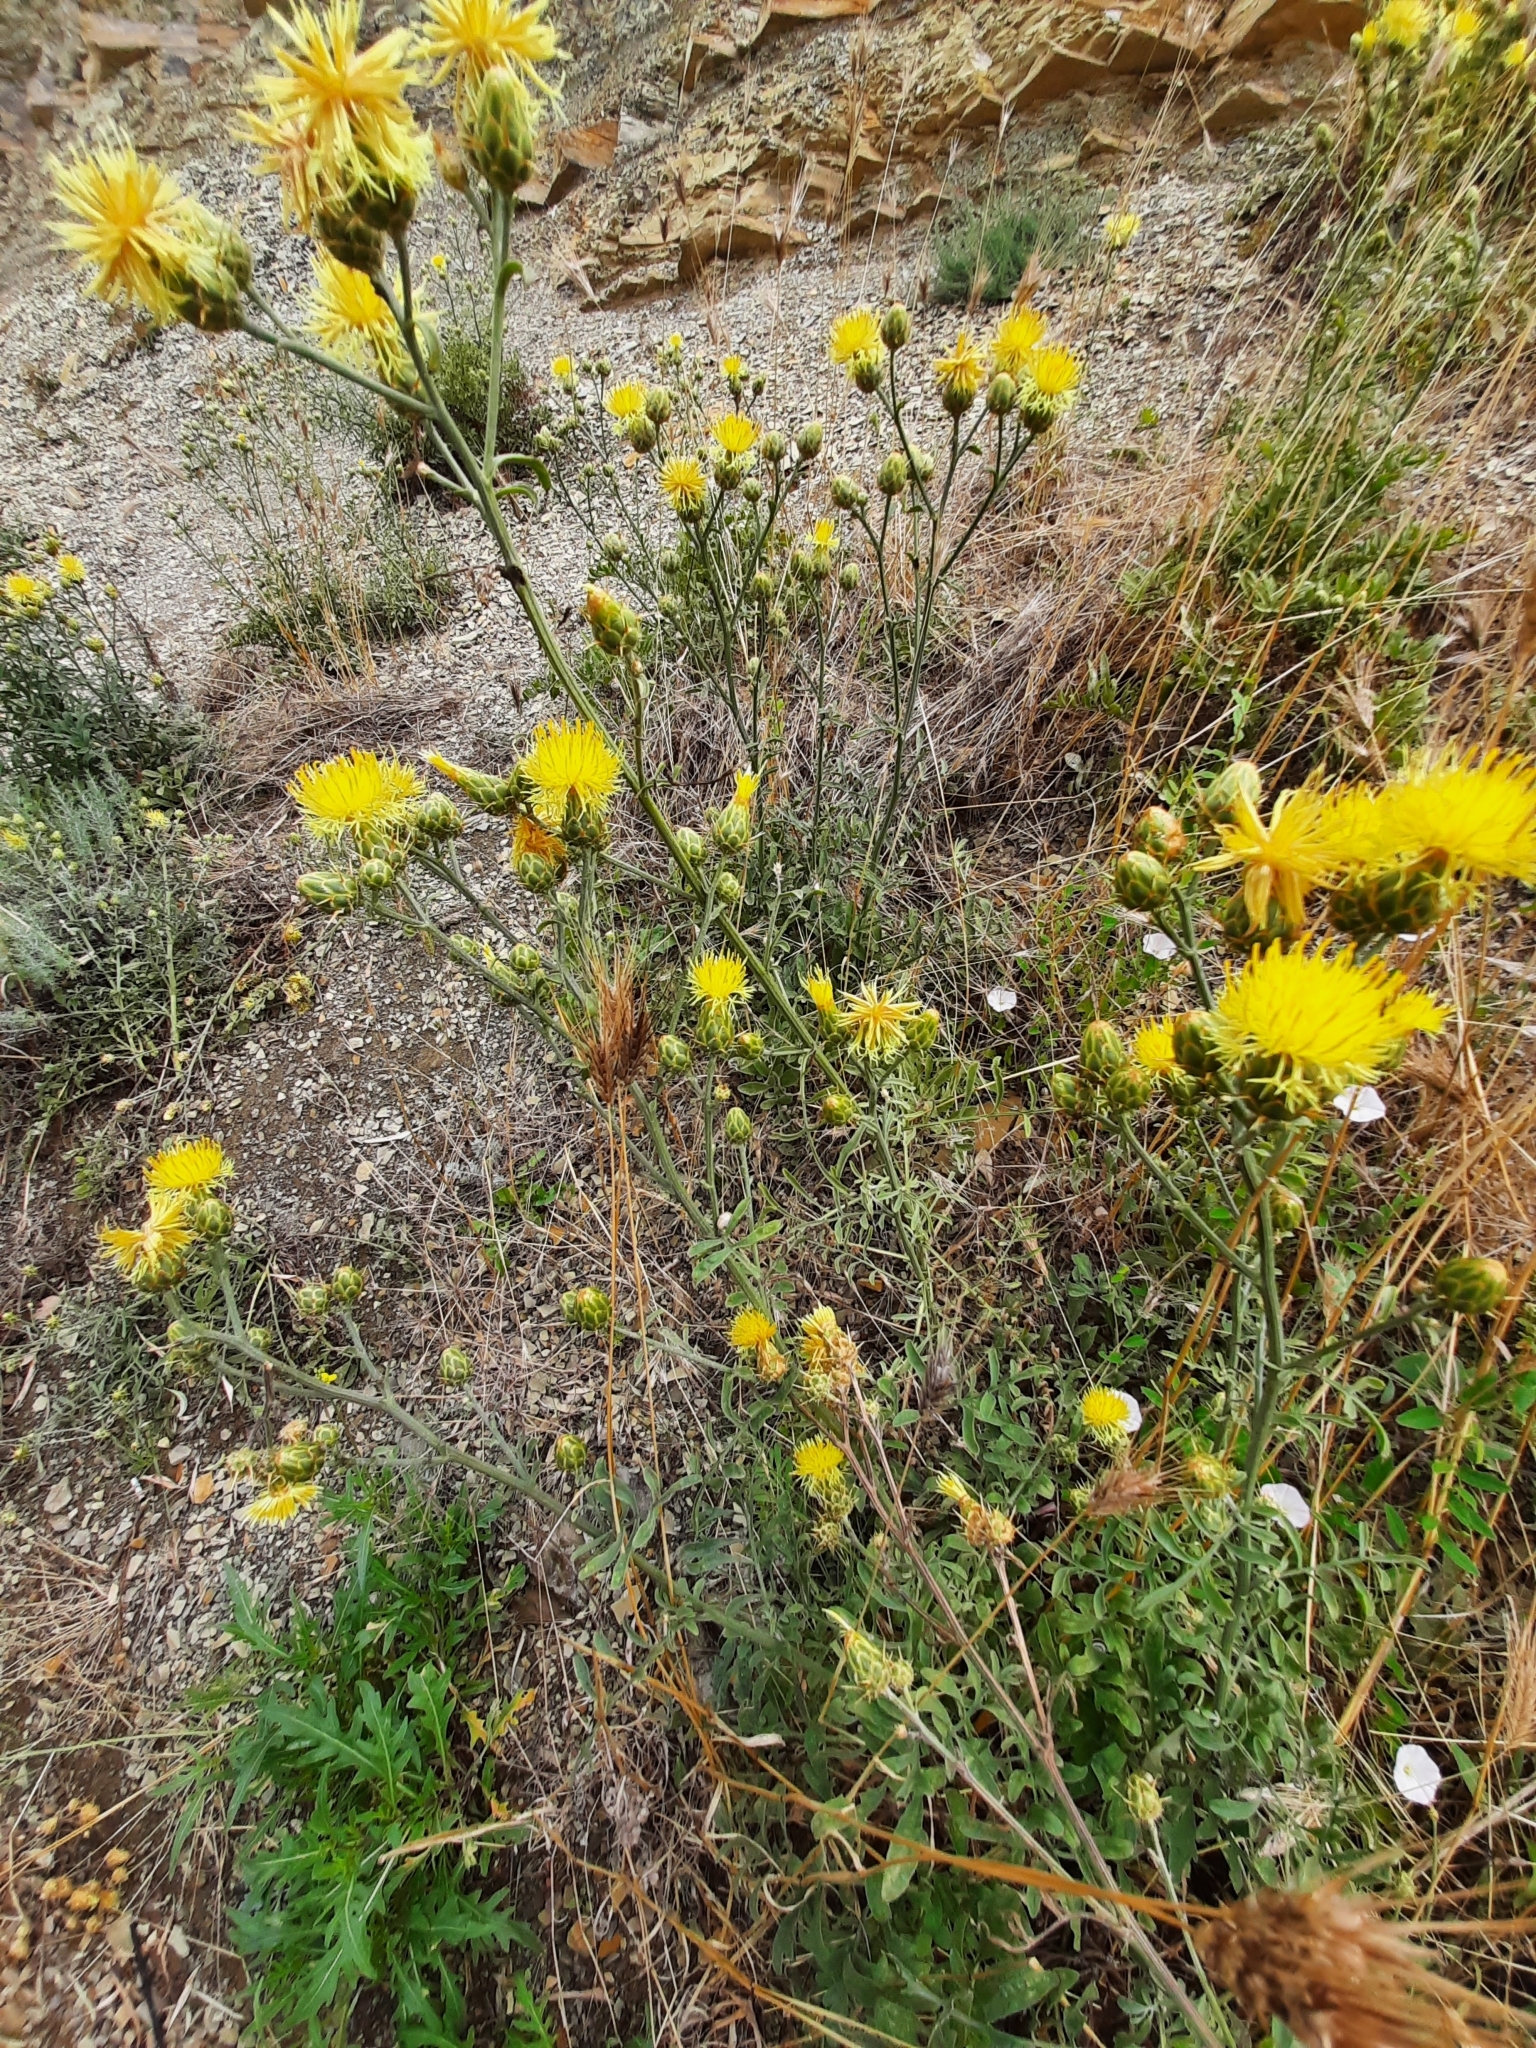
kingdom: Plantae
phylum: Tracheophyta
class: Magnoliopsida
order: Asterales
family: Asteraceae
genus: Centaurea
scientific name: Centaurea salonitana
